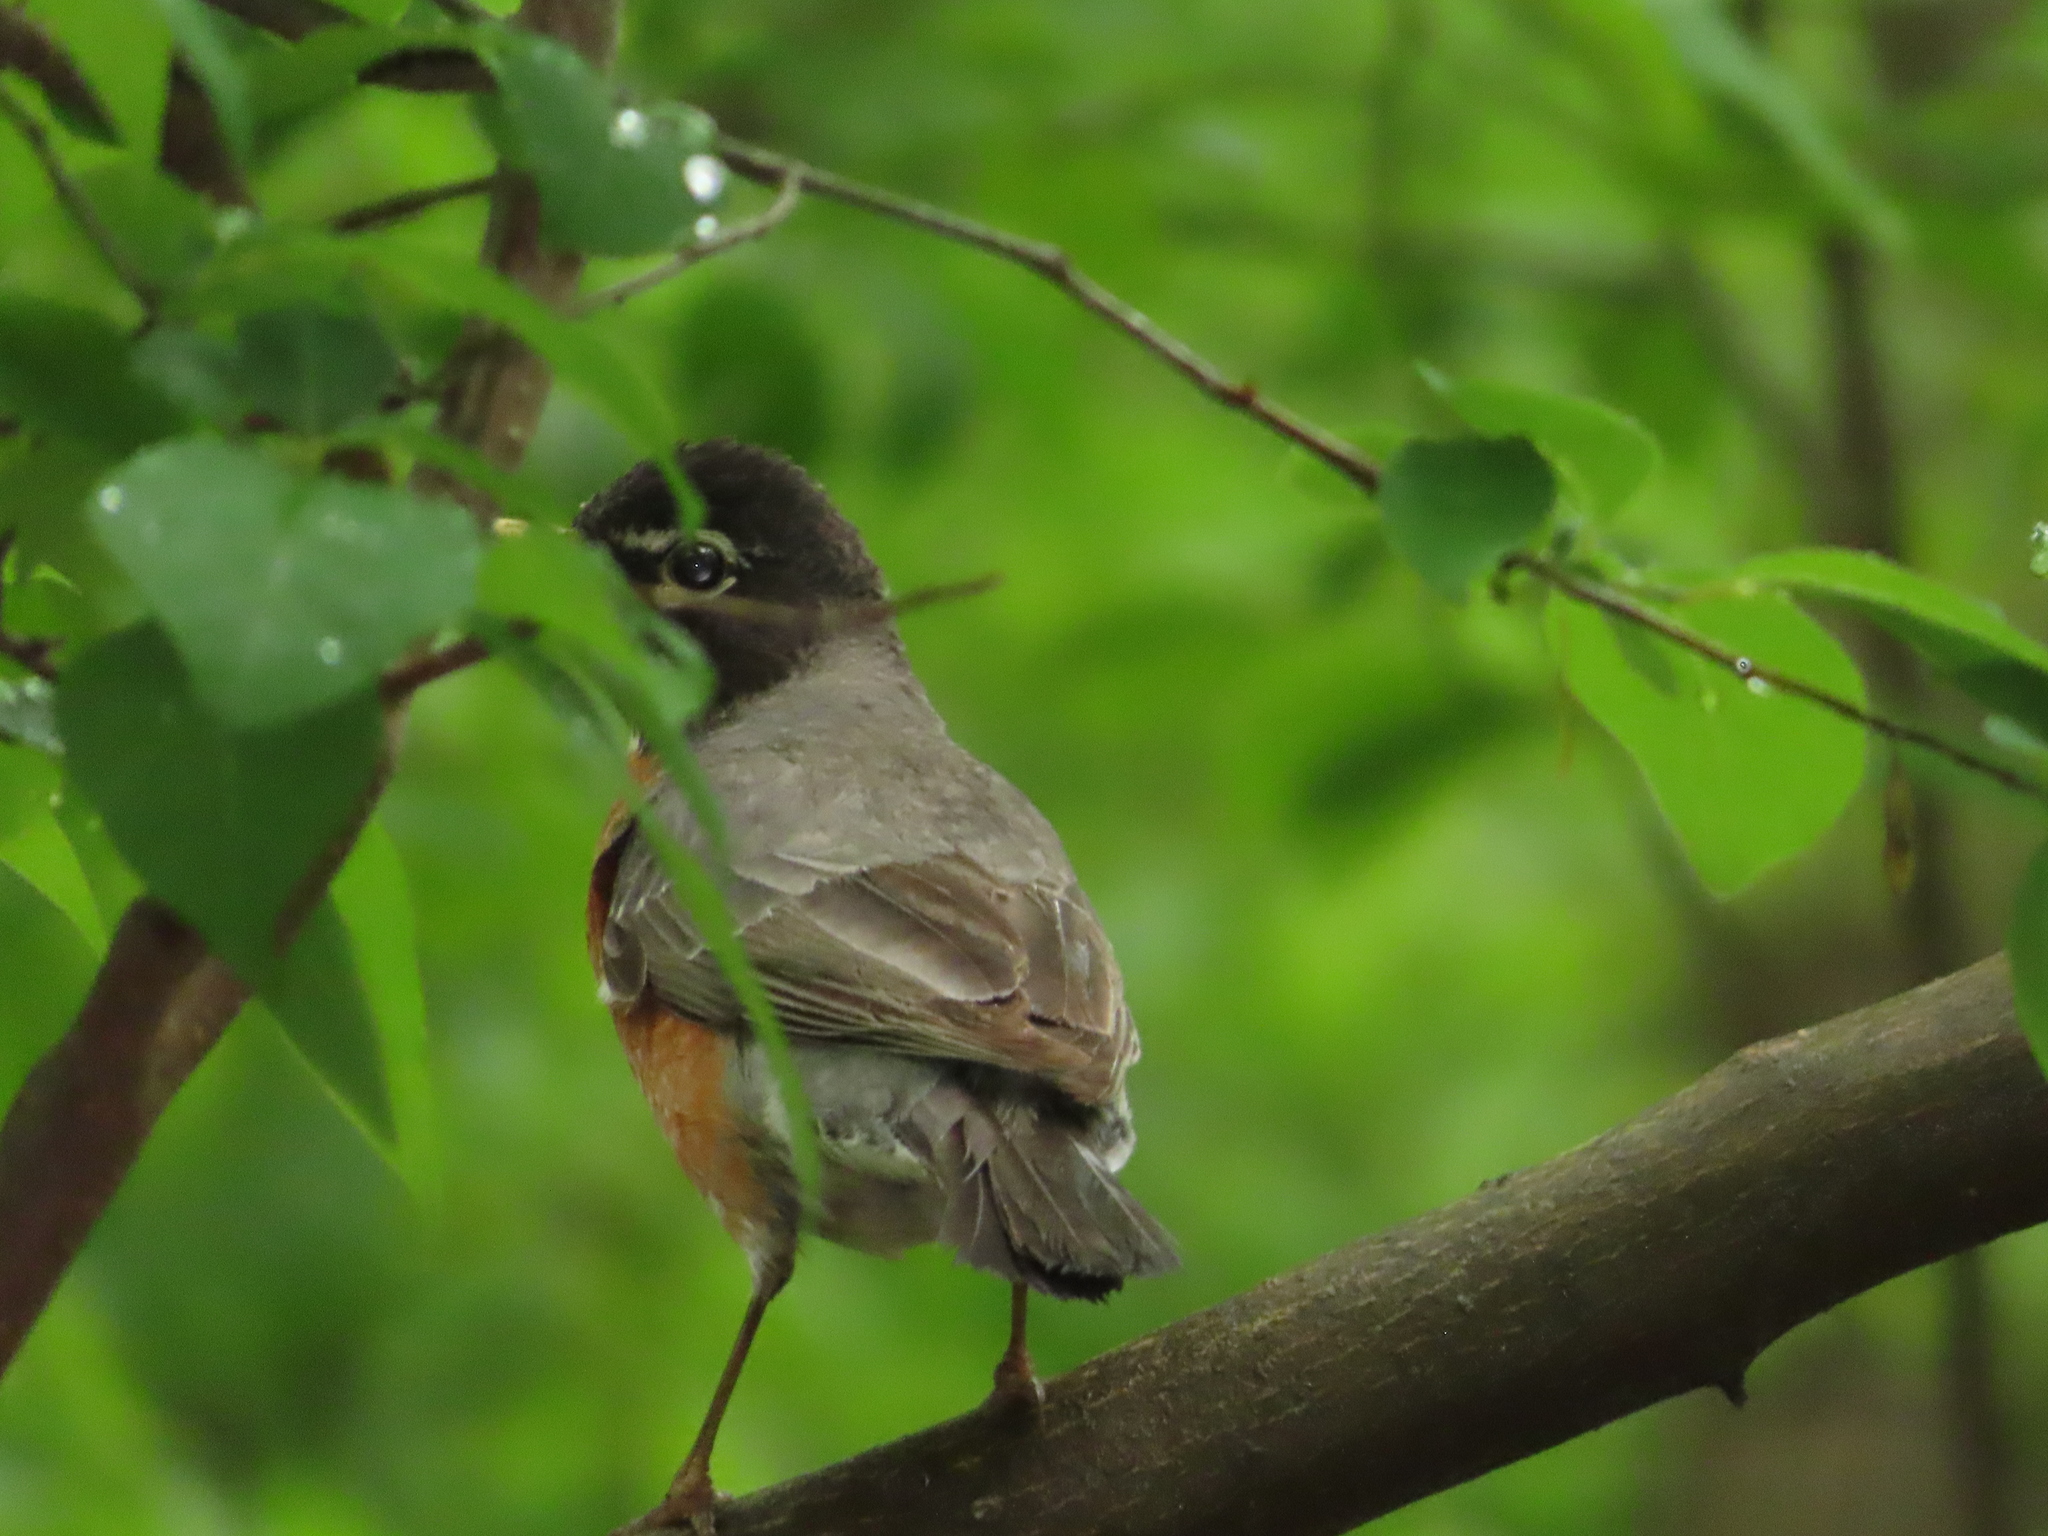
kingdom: Animalia
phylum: Chordata
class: Aves
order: Passeriformes
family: Turdidae
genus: Turdus
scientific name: Turdus migratorius
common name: American robin
